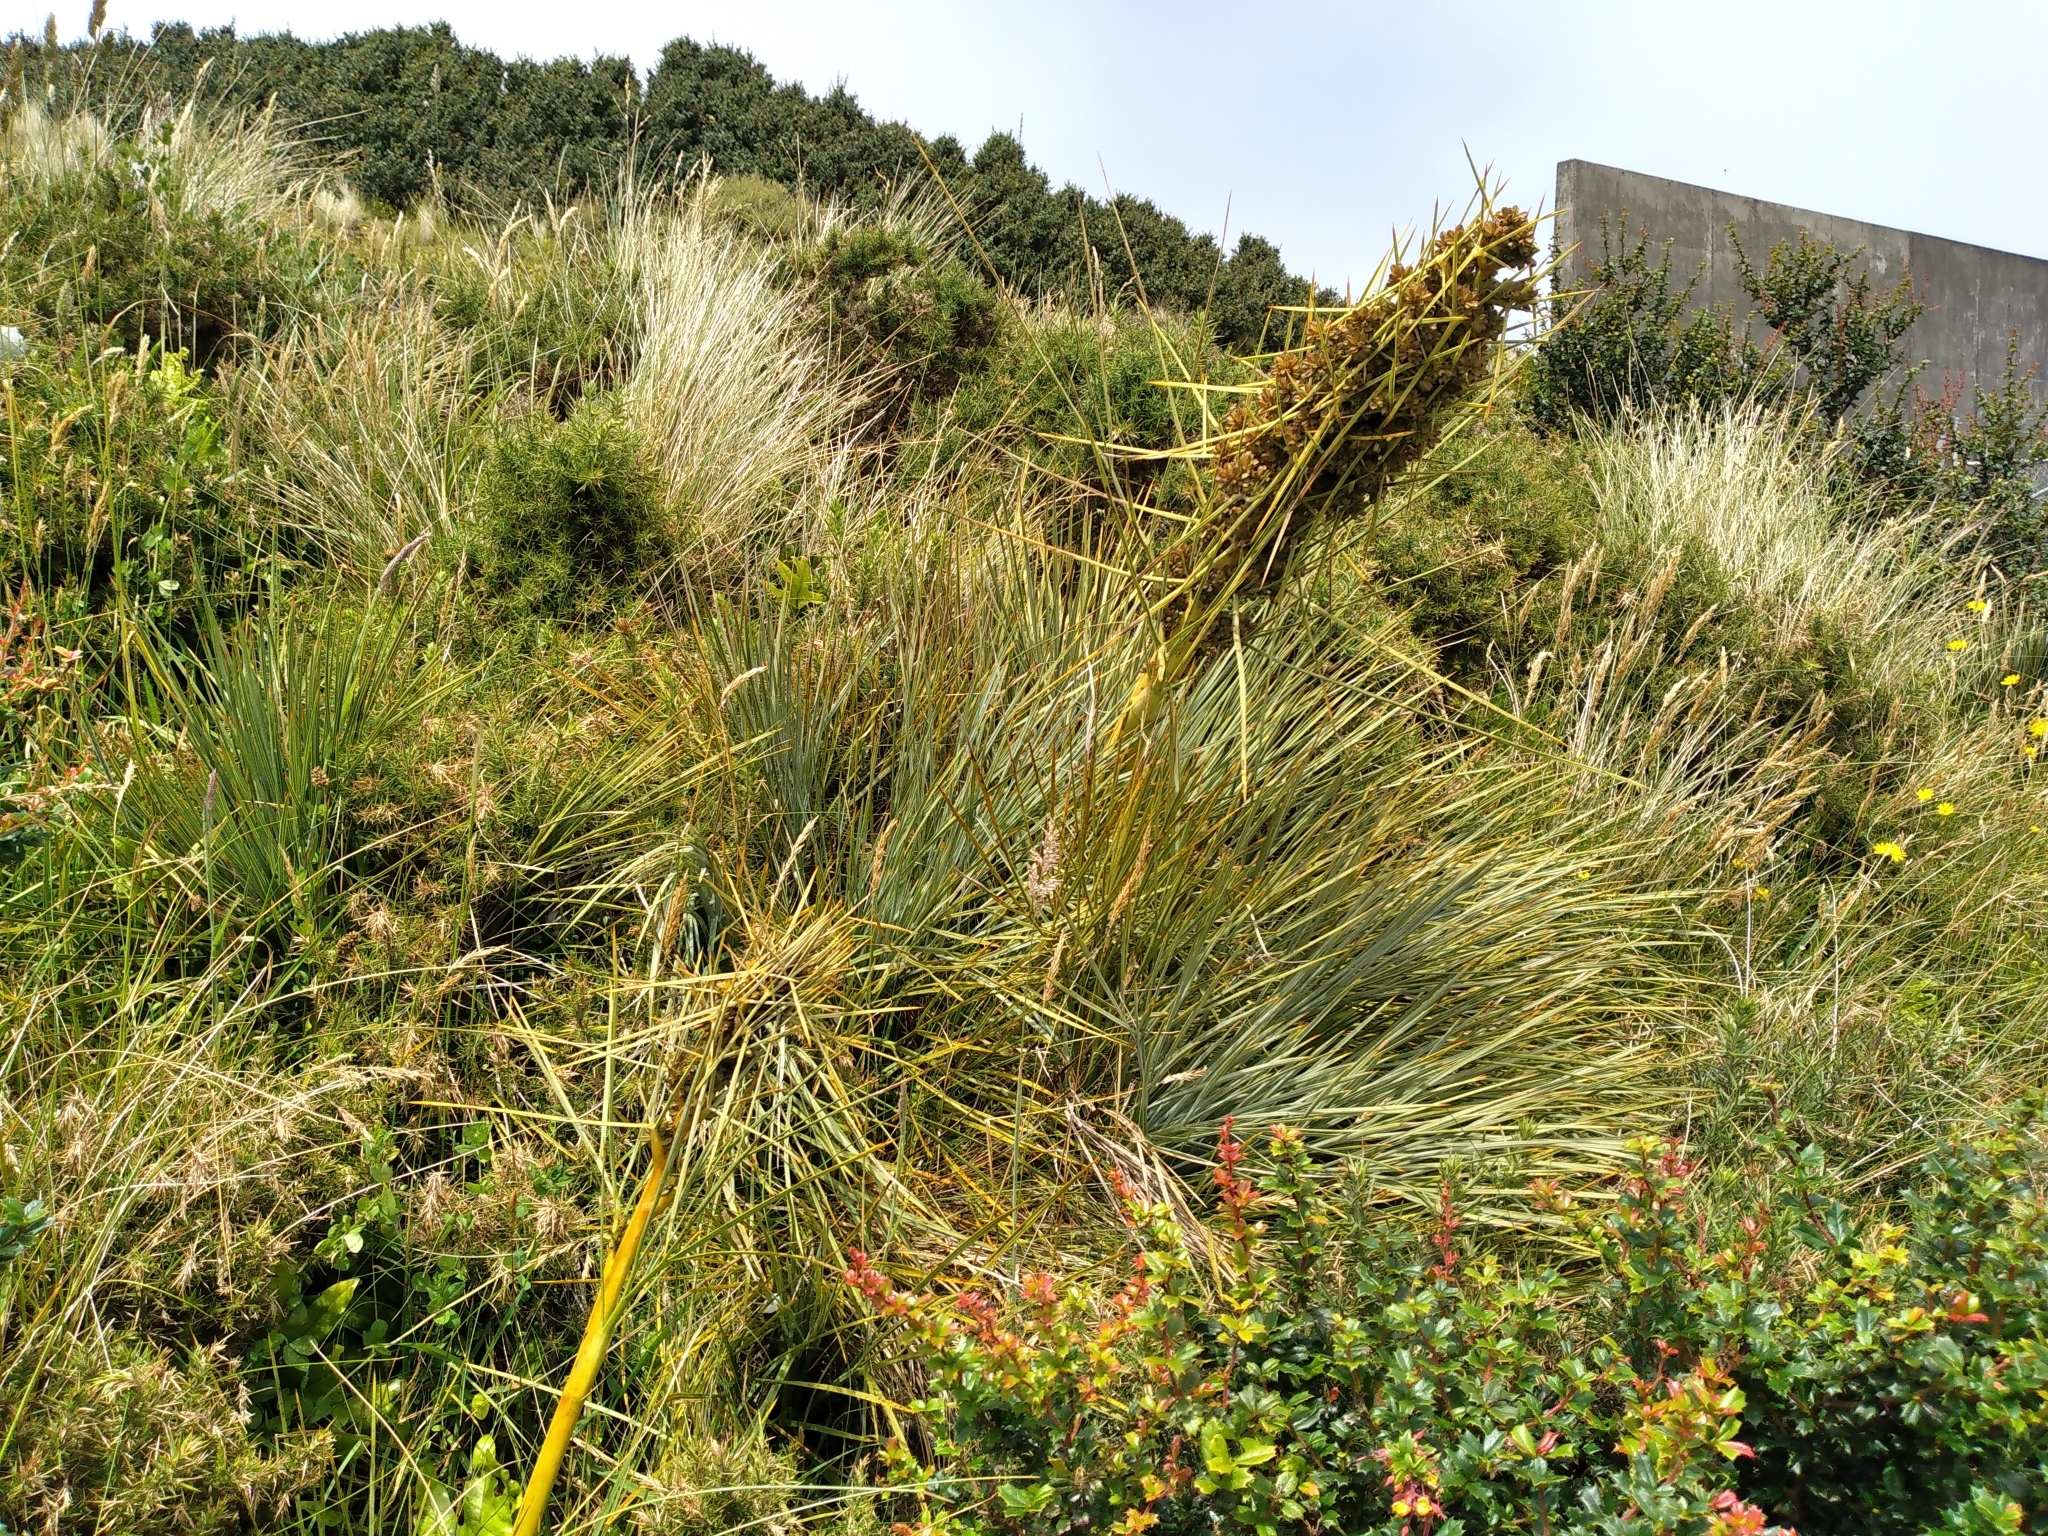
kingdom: Plantae
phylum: Tracheophyta
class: Magnoliopsida
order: Apiales
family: Apiaceae
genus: Aciphylla
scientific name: Aciphylla squarrosa
